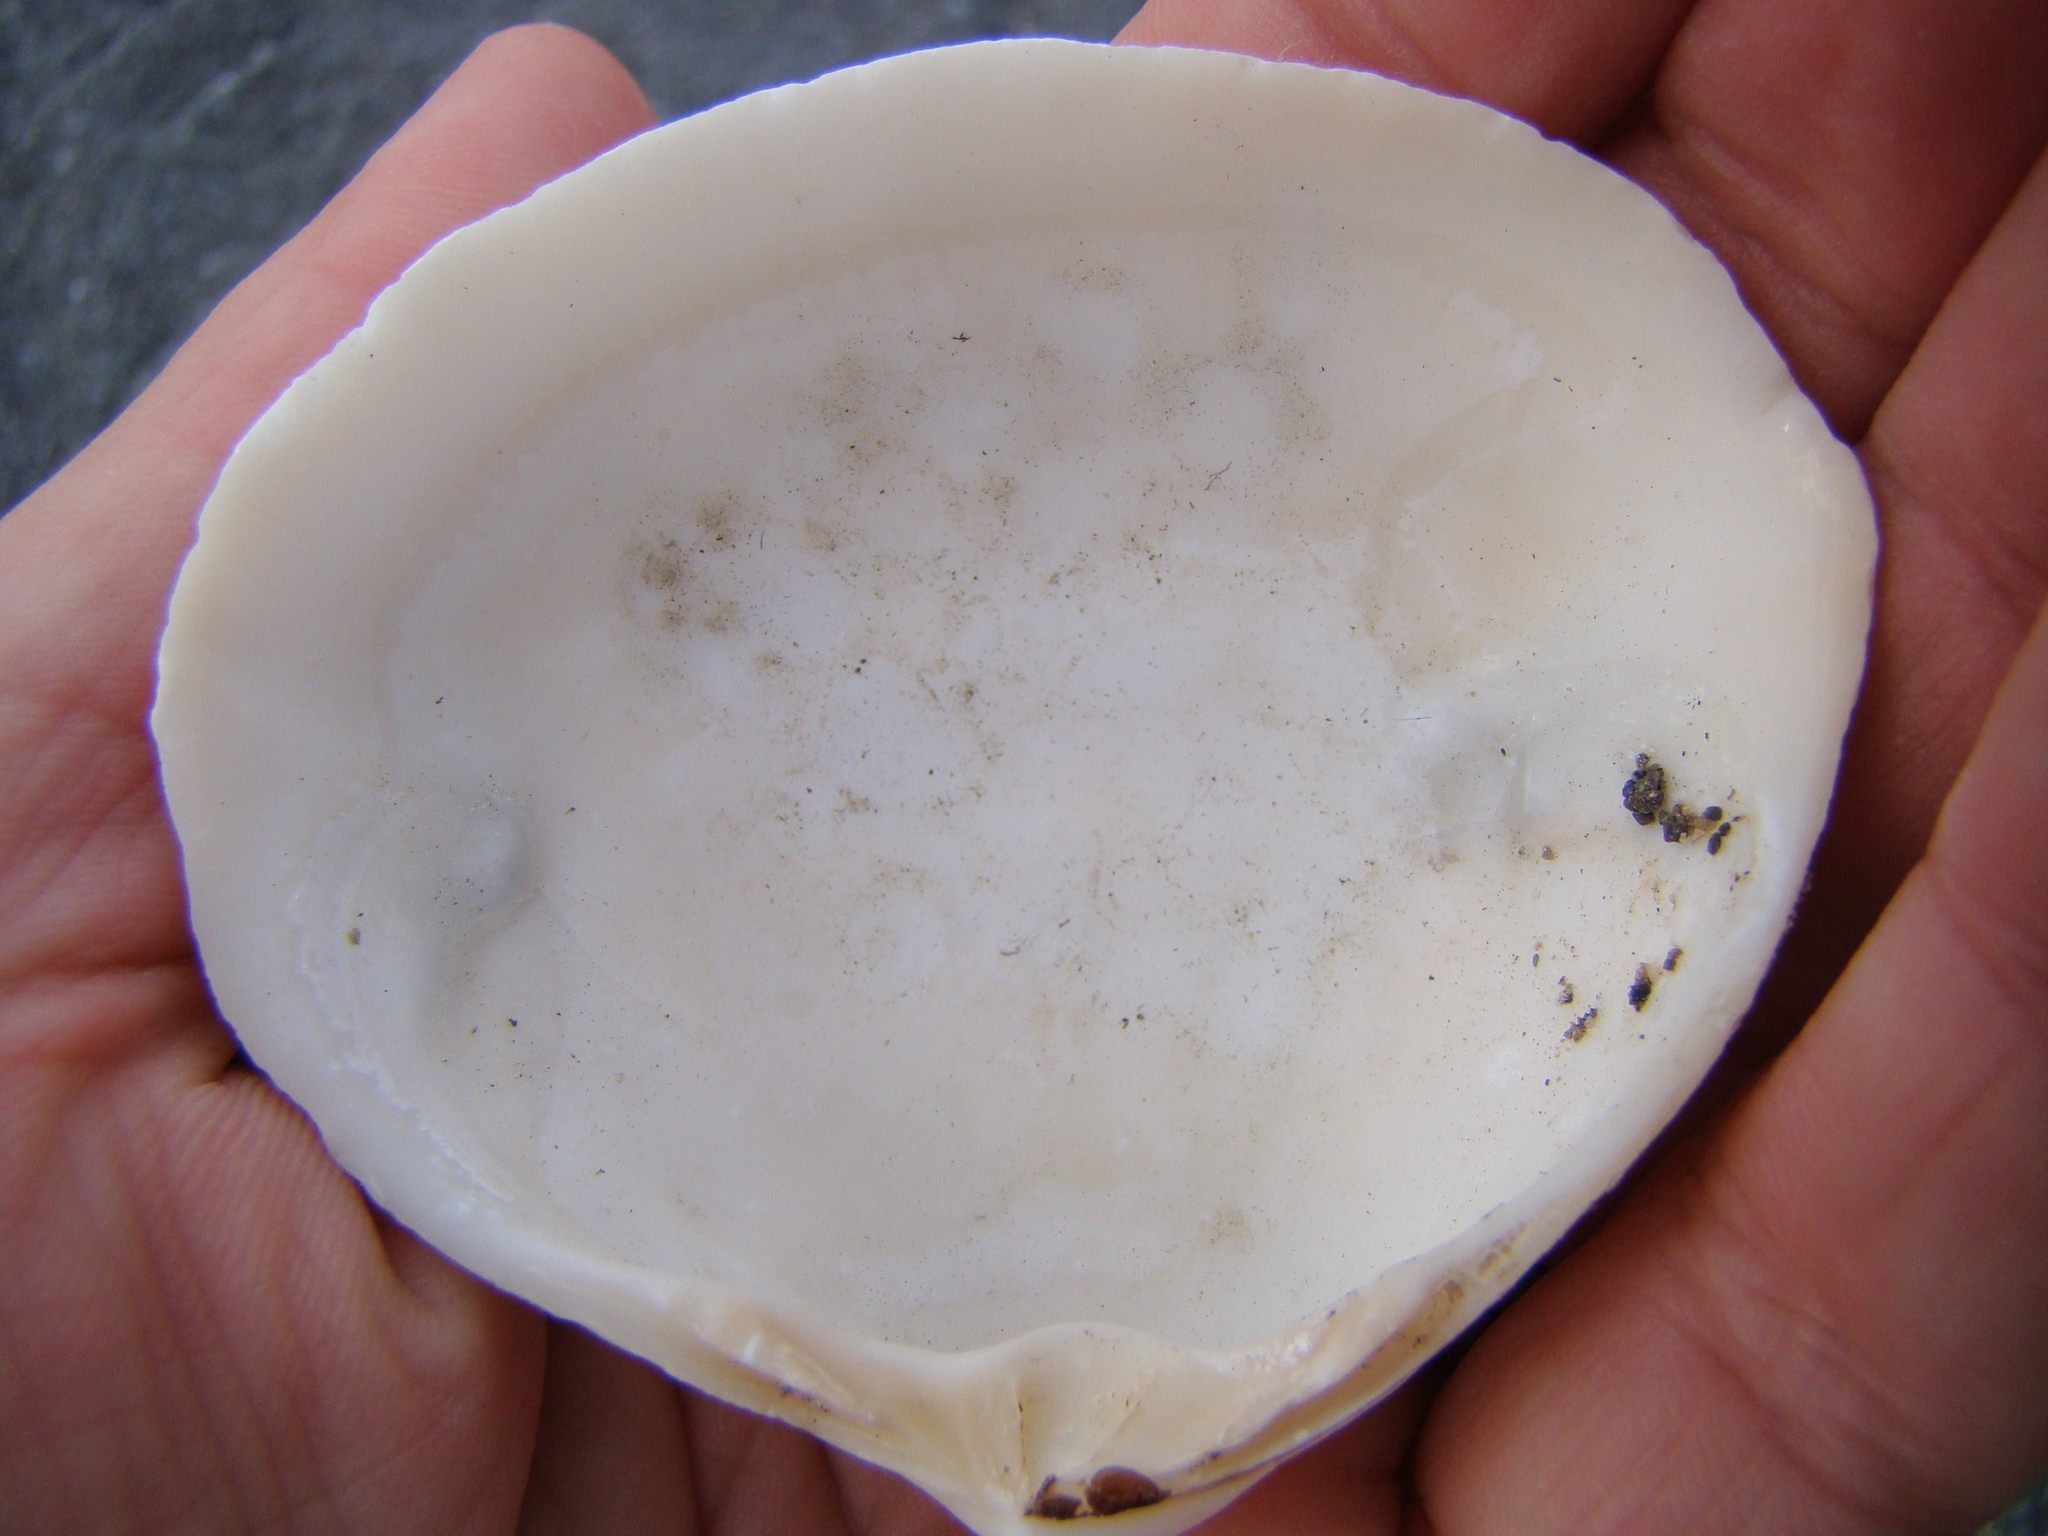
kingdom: Animalia
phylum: Mollusca
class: Bivalvia
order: Venerida
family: Mactridae
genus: Spisula
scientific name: Spisula discors
